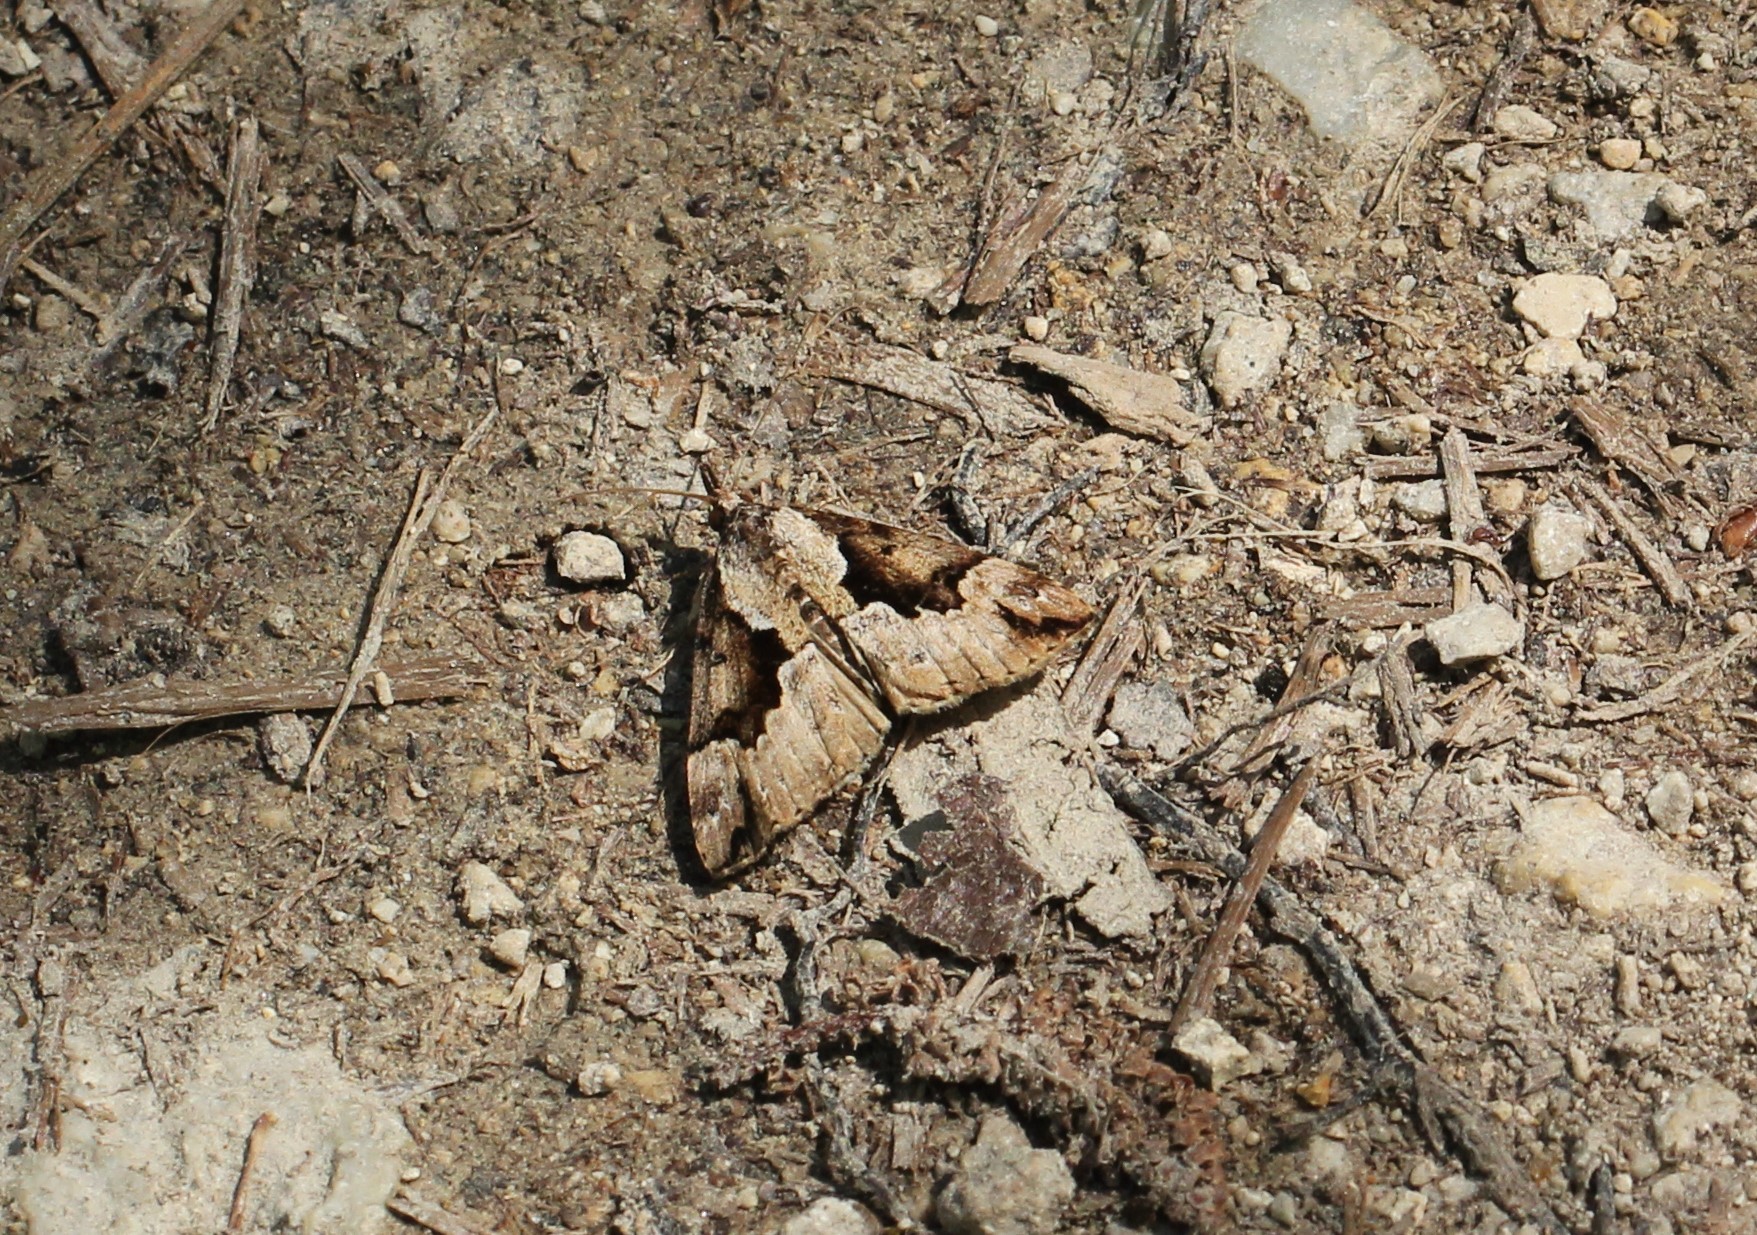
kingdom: Animalia
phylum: Arthropoda
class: Insecta
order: Lepidoptera
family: Erebidae
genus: Hypena
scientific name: Hypena palparia
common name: Mottled bomolocha moth
